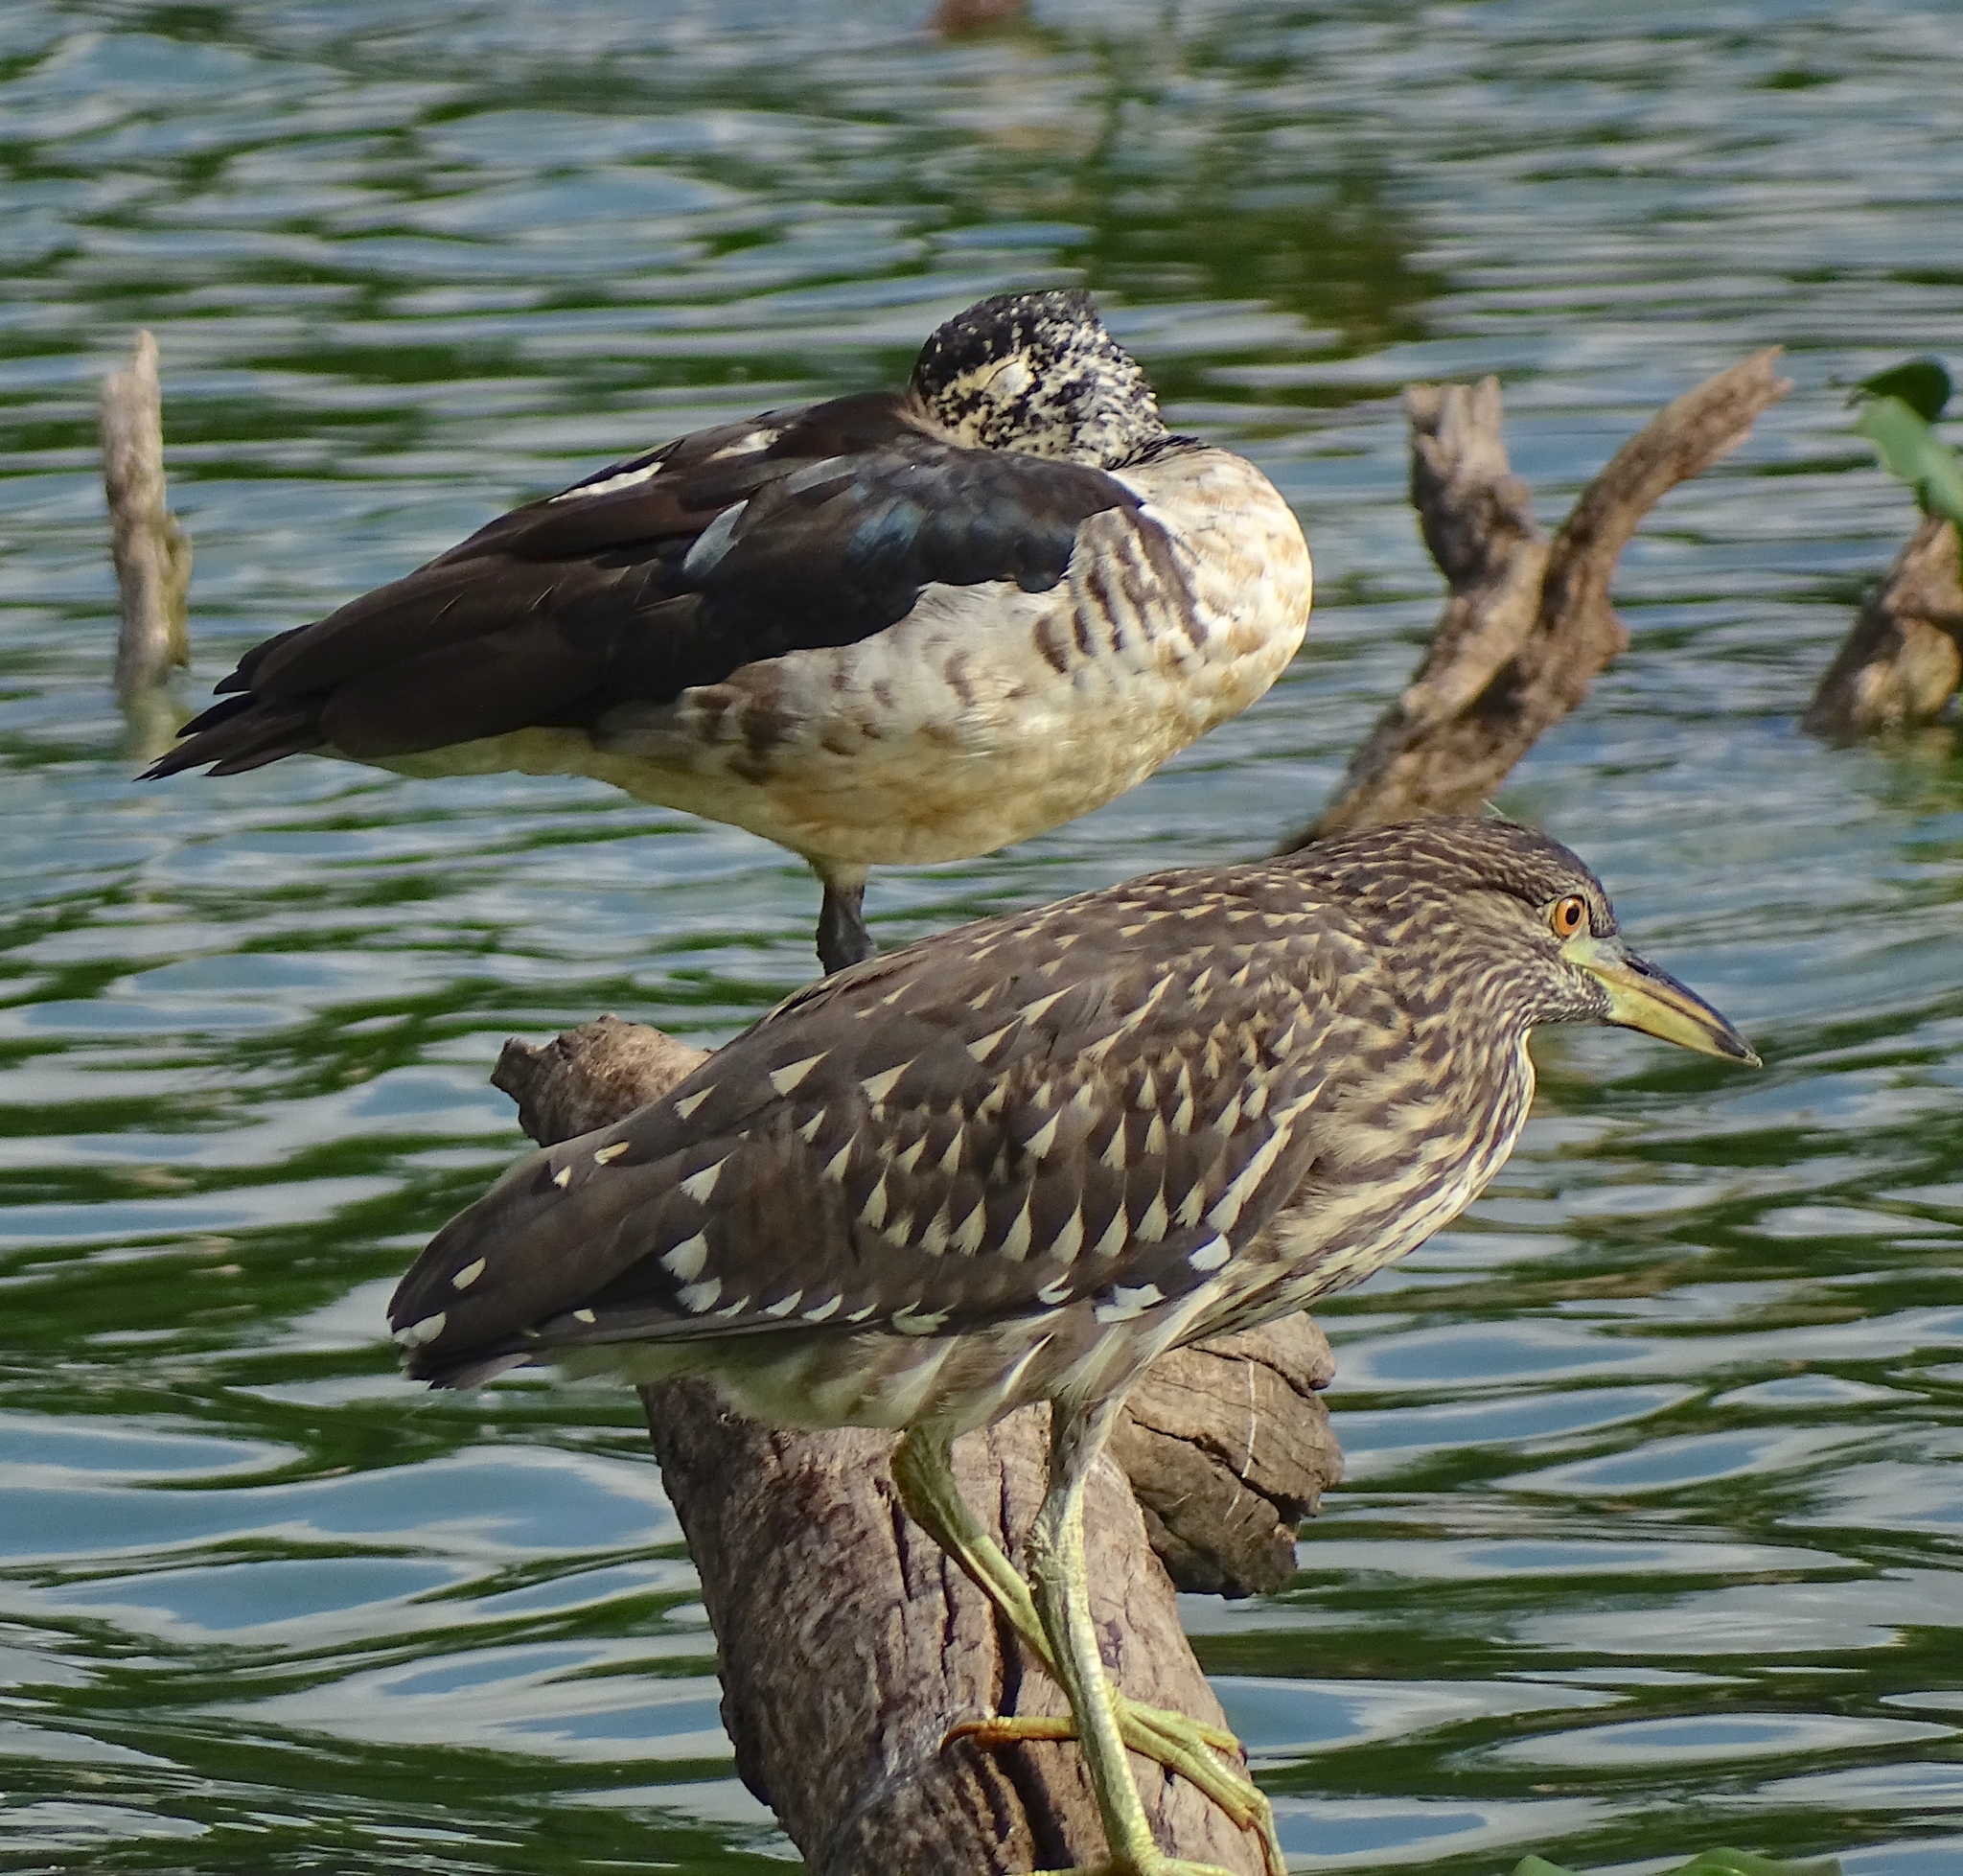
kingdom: Animalia
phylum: Chordata
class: Aves
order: Anseriformes
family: Anatidae
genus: Sarkidiornis
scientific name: Sarkidiornis melanotos
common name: Comb duck
